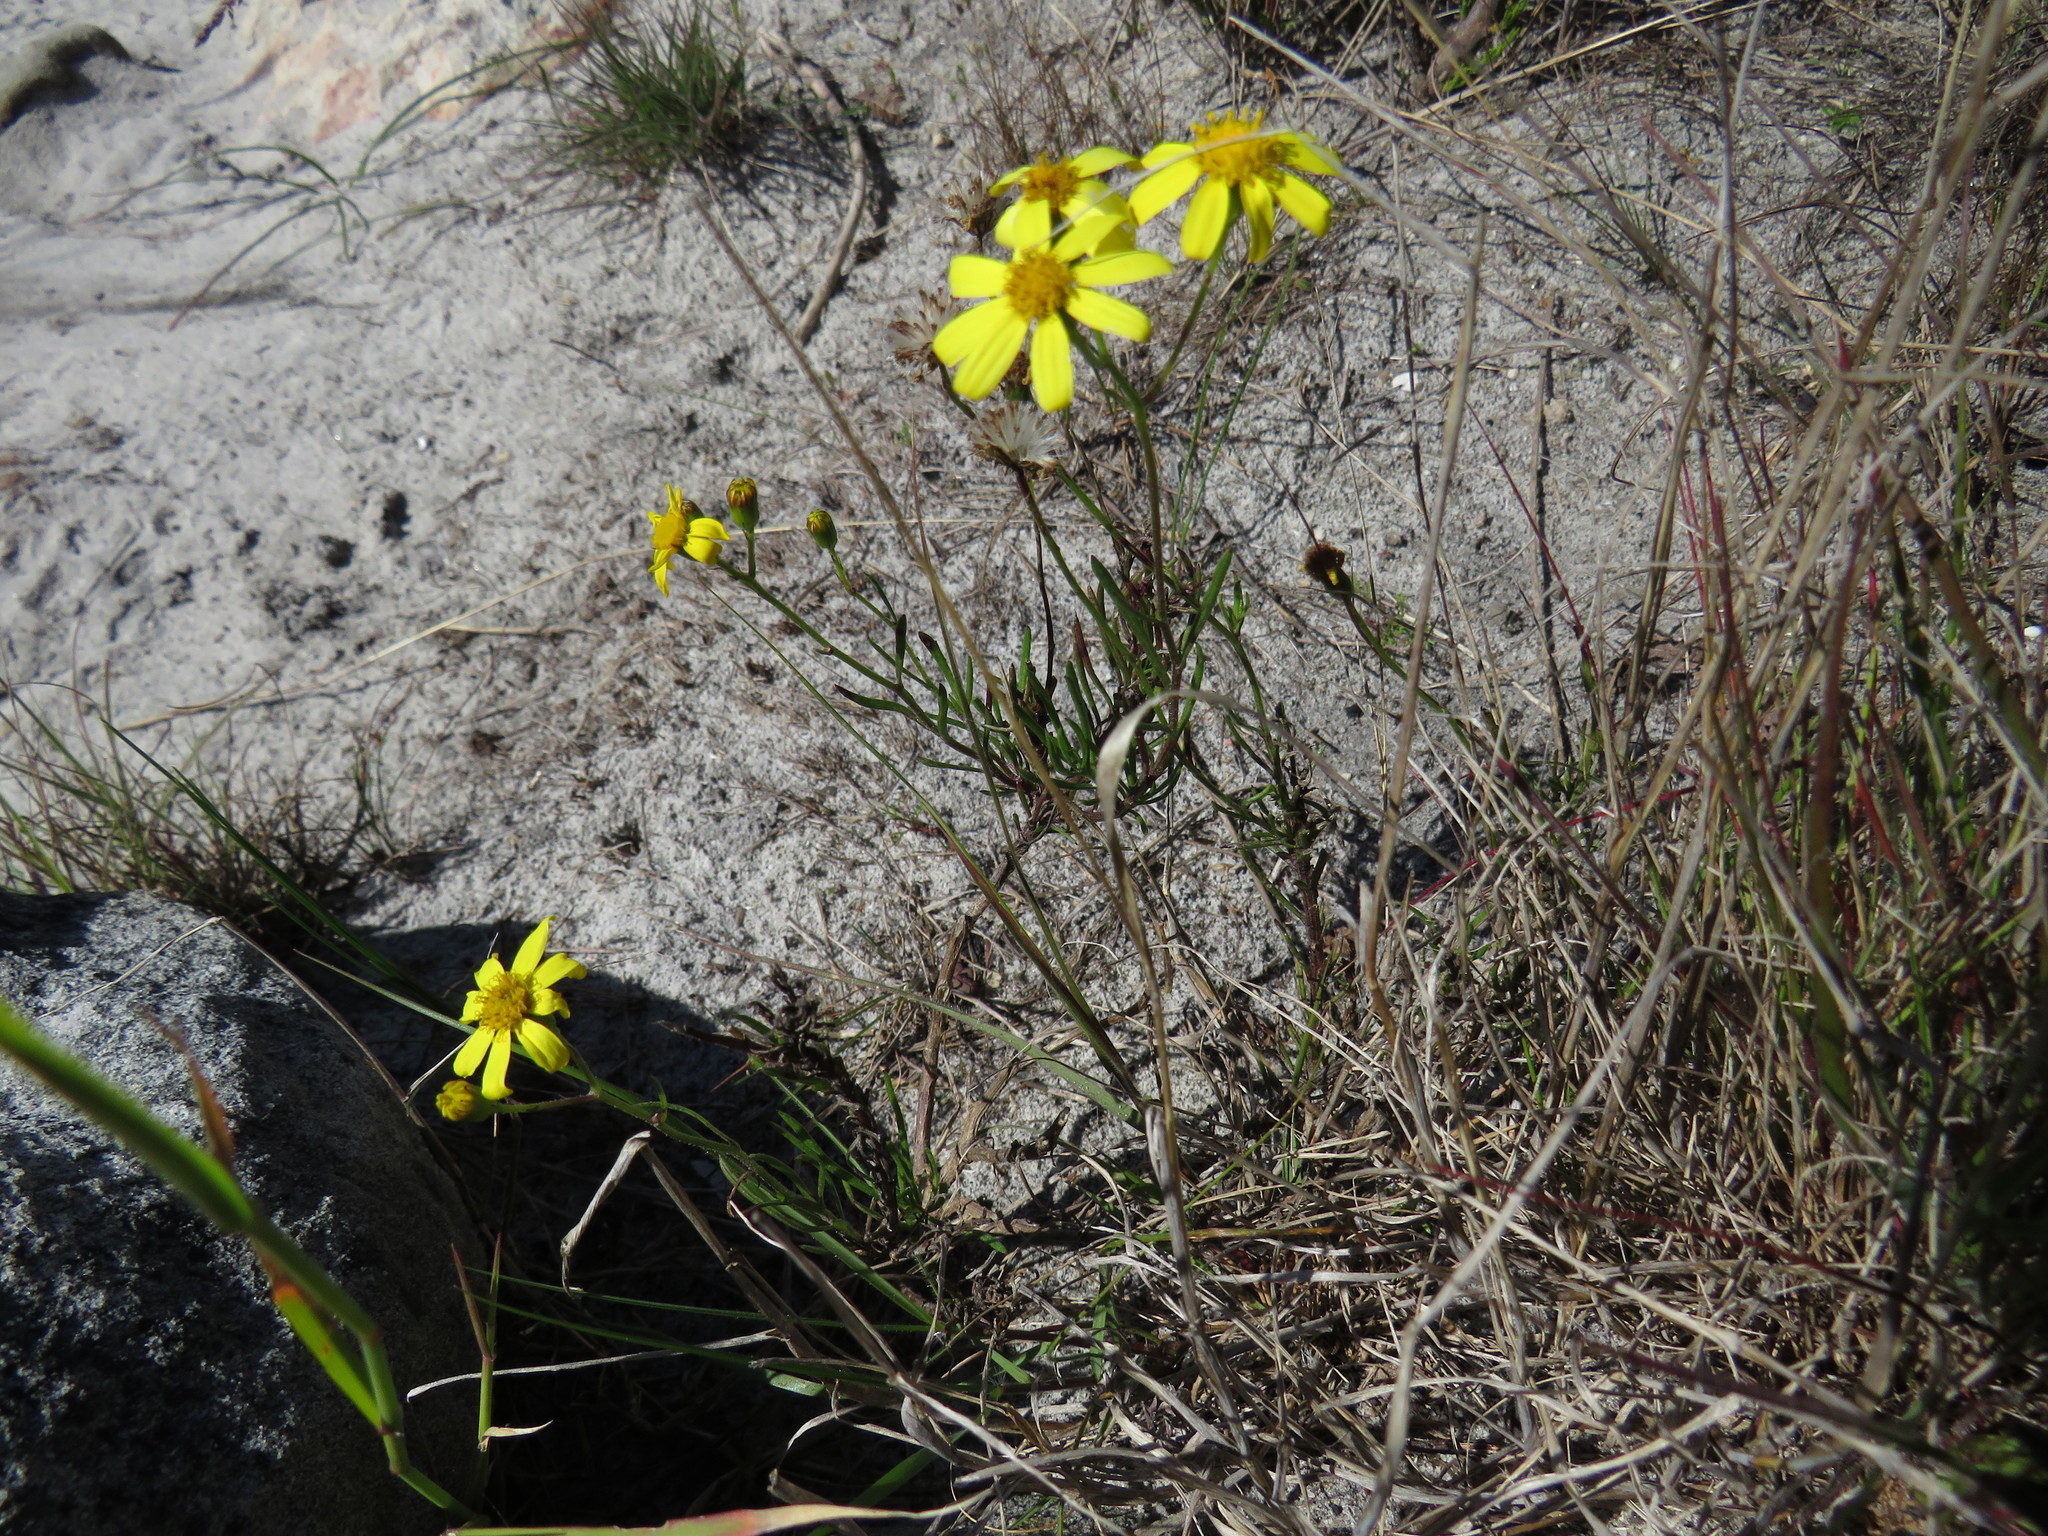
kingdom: Plantae
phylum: Tracheophyta
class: Magnoliopsida
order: Asterales
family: Asteraceae
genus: Senecio
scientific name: Senecio burchellii
